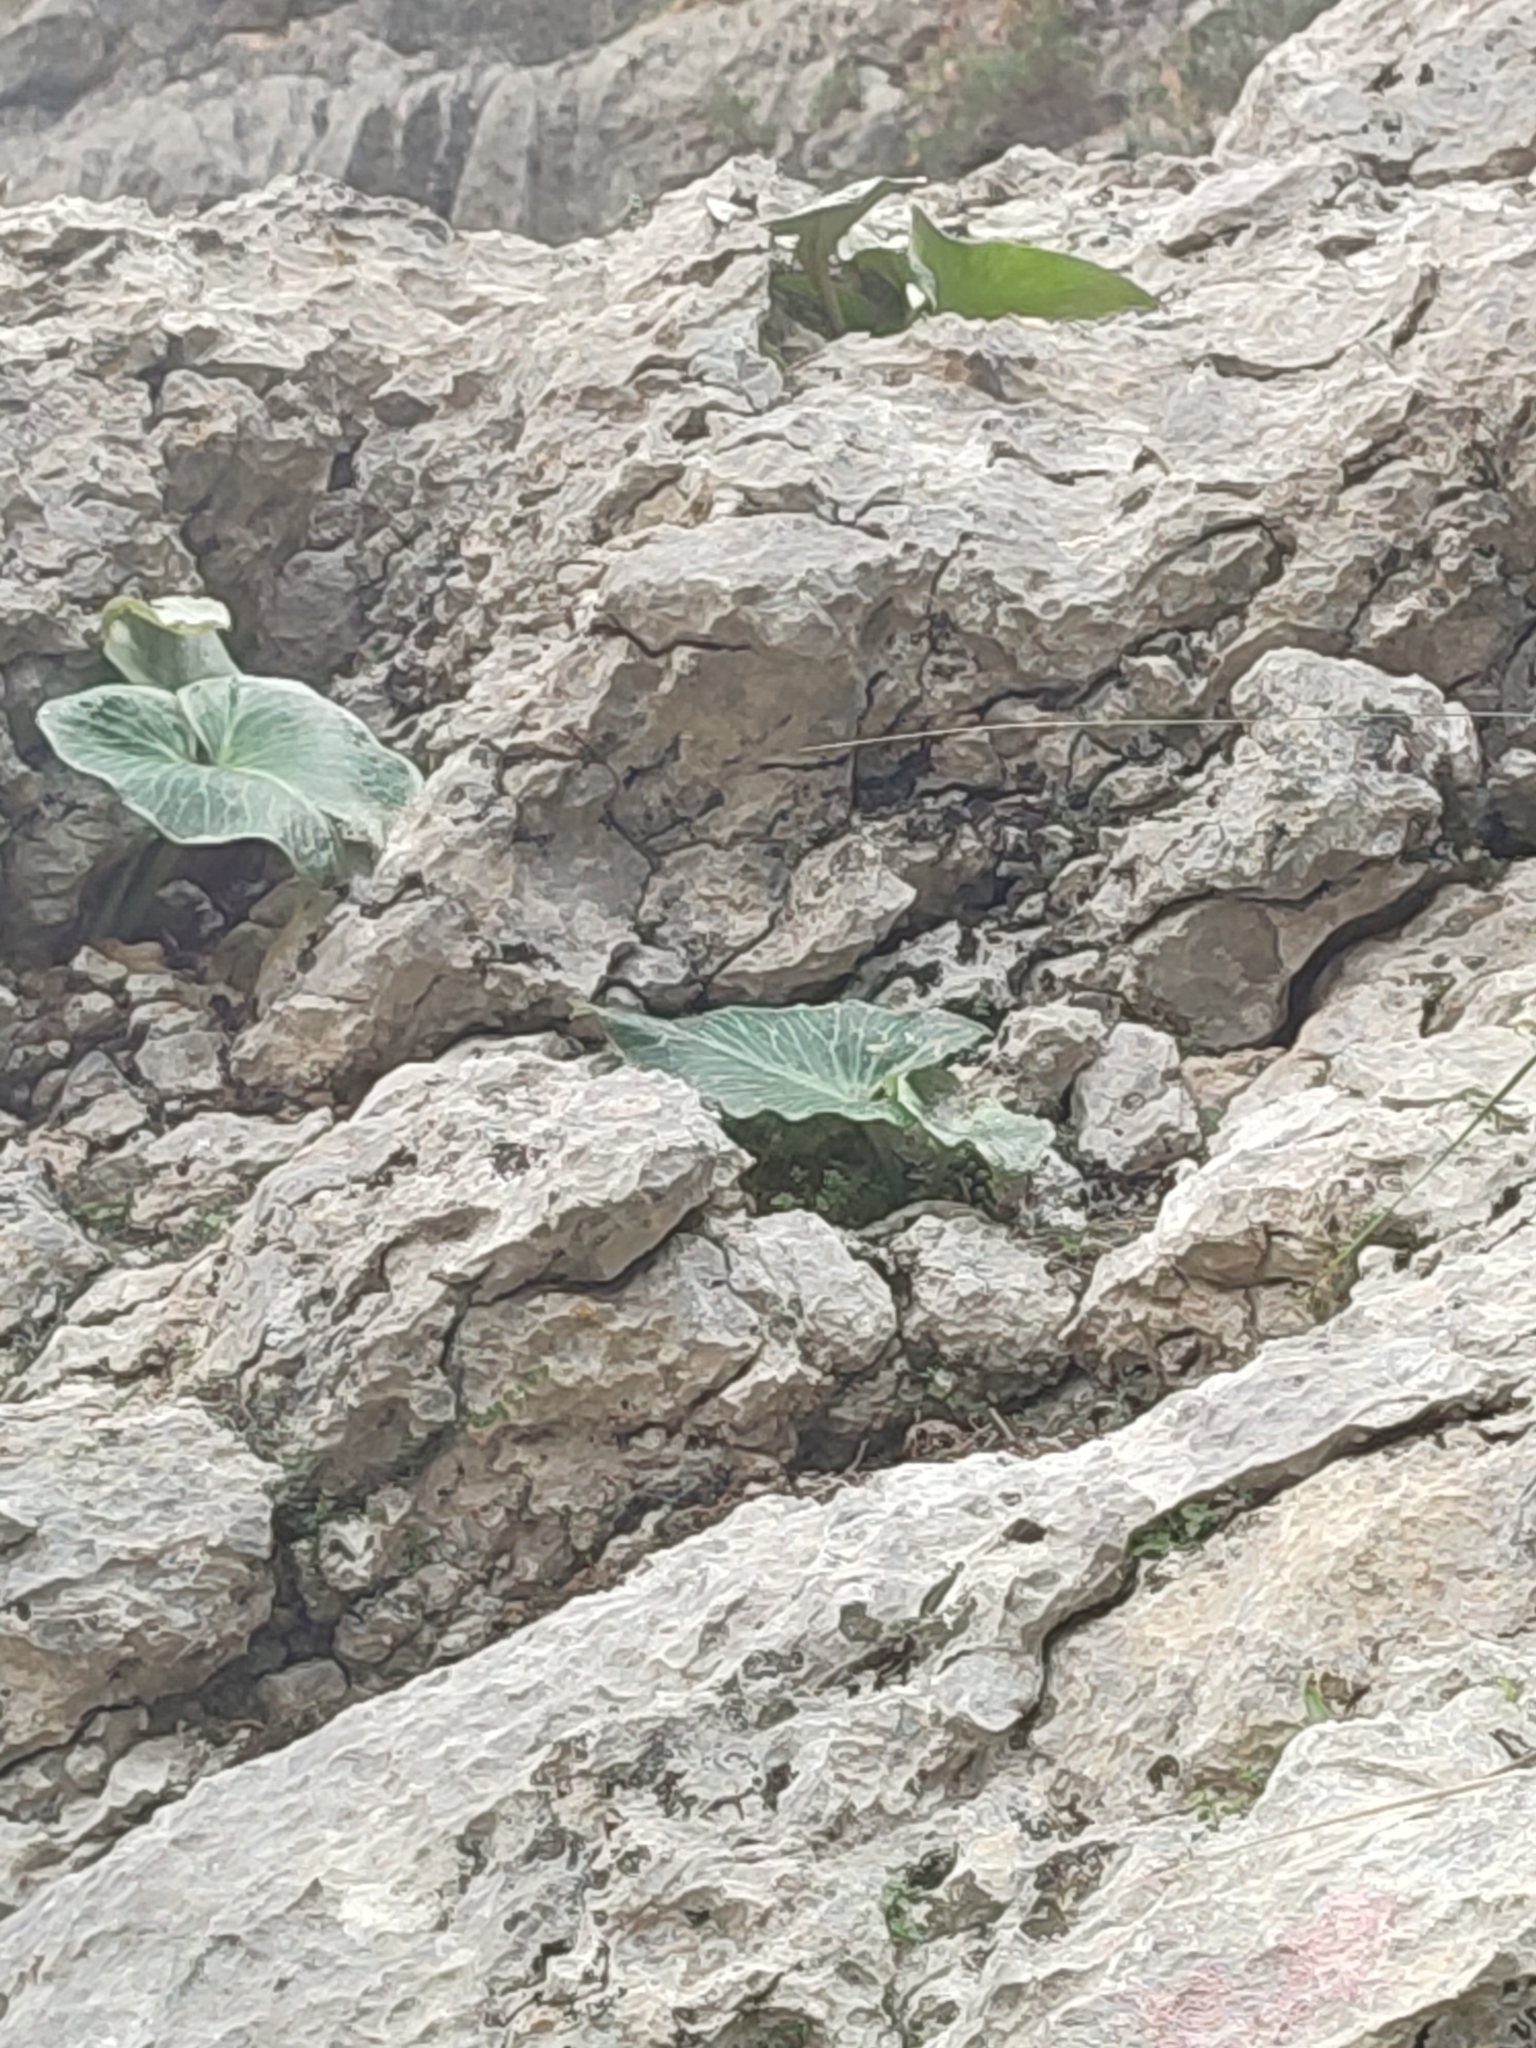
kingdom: Plantae
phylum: Tracheophyta
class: Liliopsida
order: Alismatales
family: Araceae
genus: Arum
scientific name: Arum pictum
